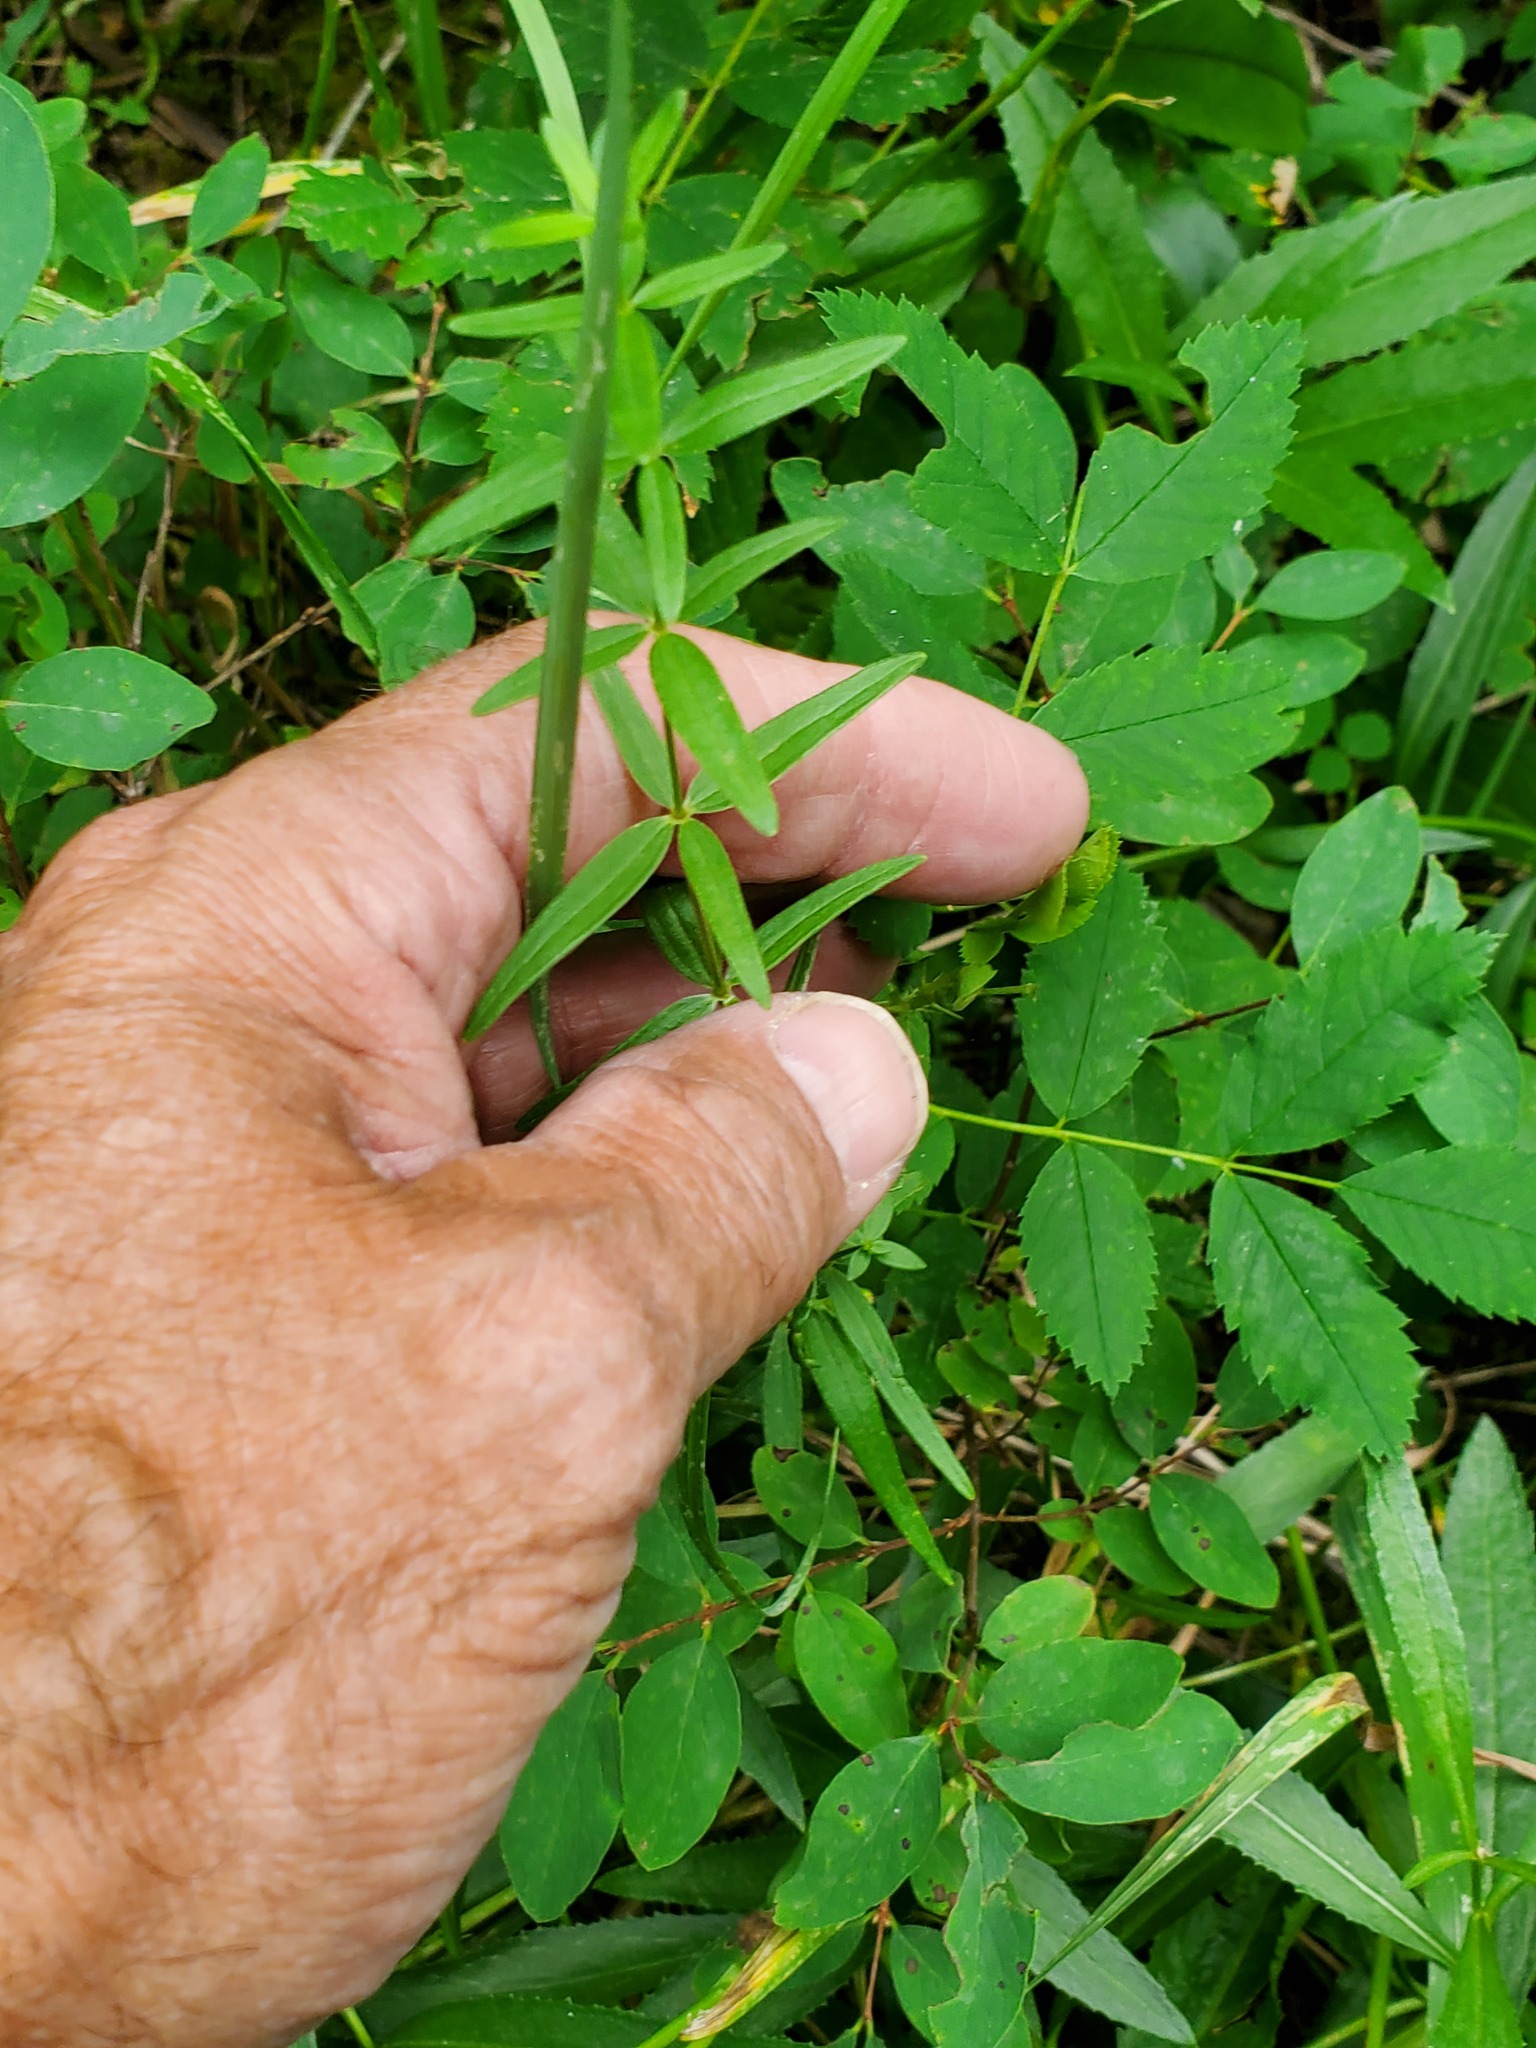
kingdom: Plantae
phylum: Tracheophyta
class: Magnoliopsida
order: Gentianales
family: Rubiaceae
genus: Galium
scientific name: Galium boreale
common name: Northern bedstraw
